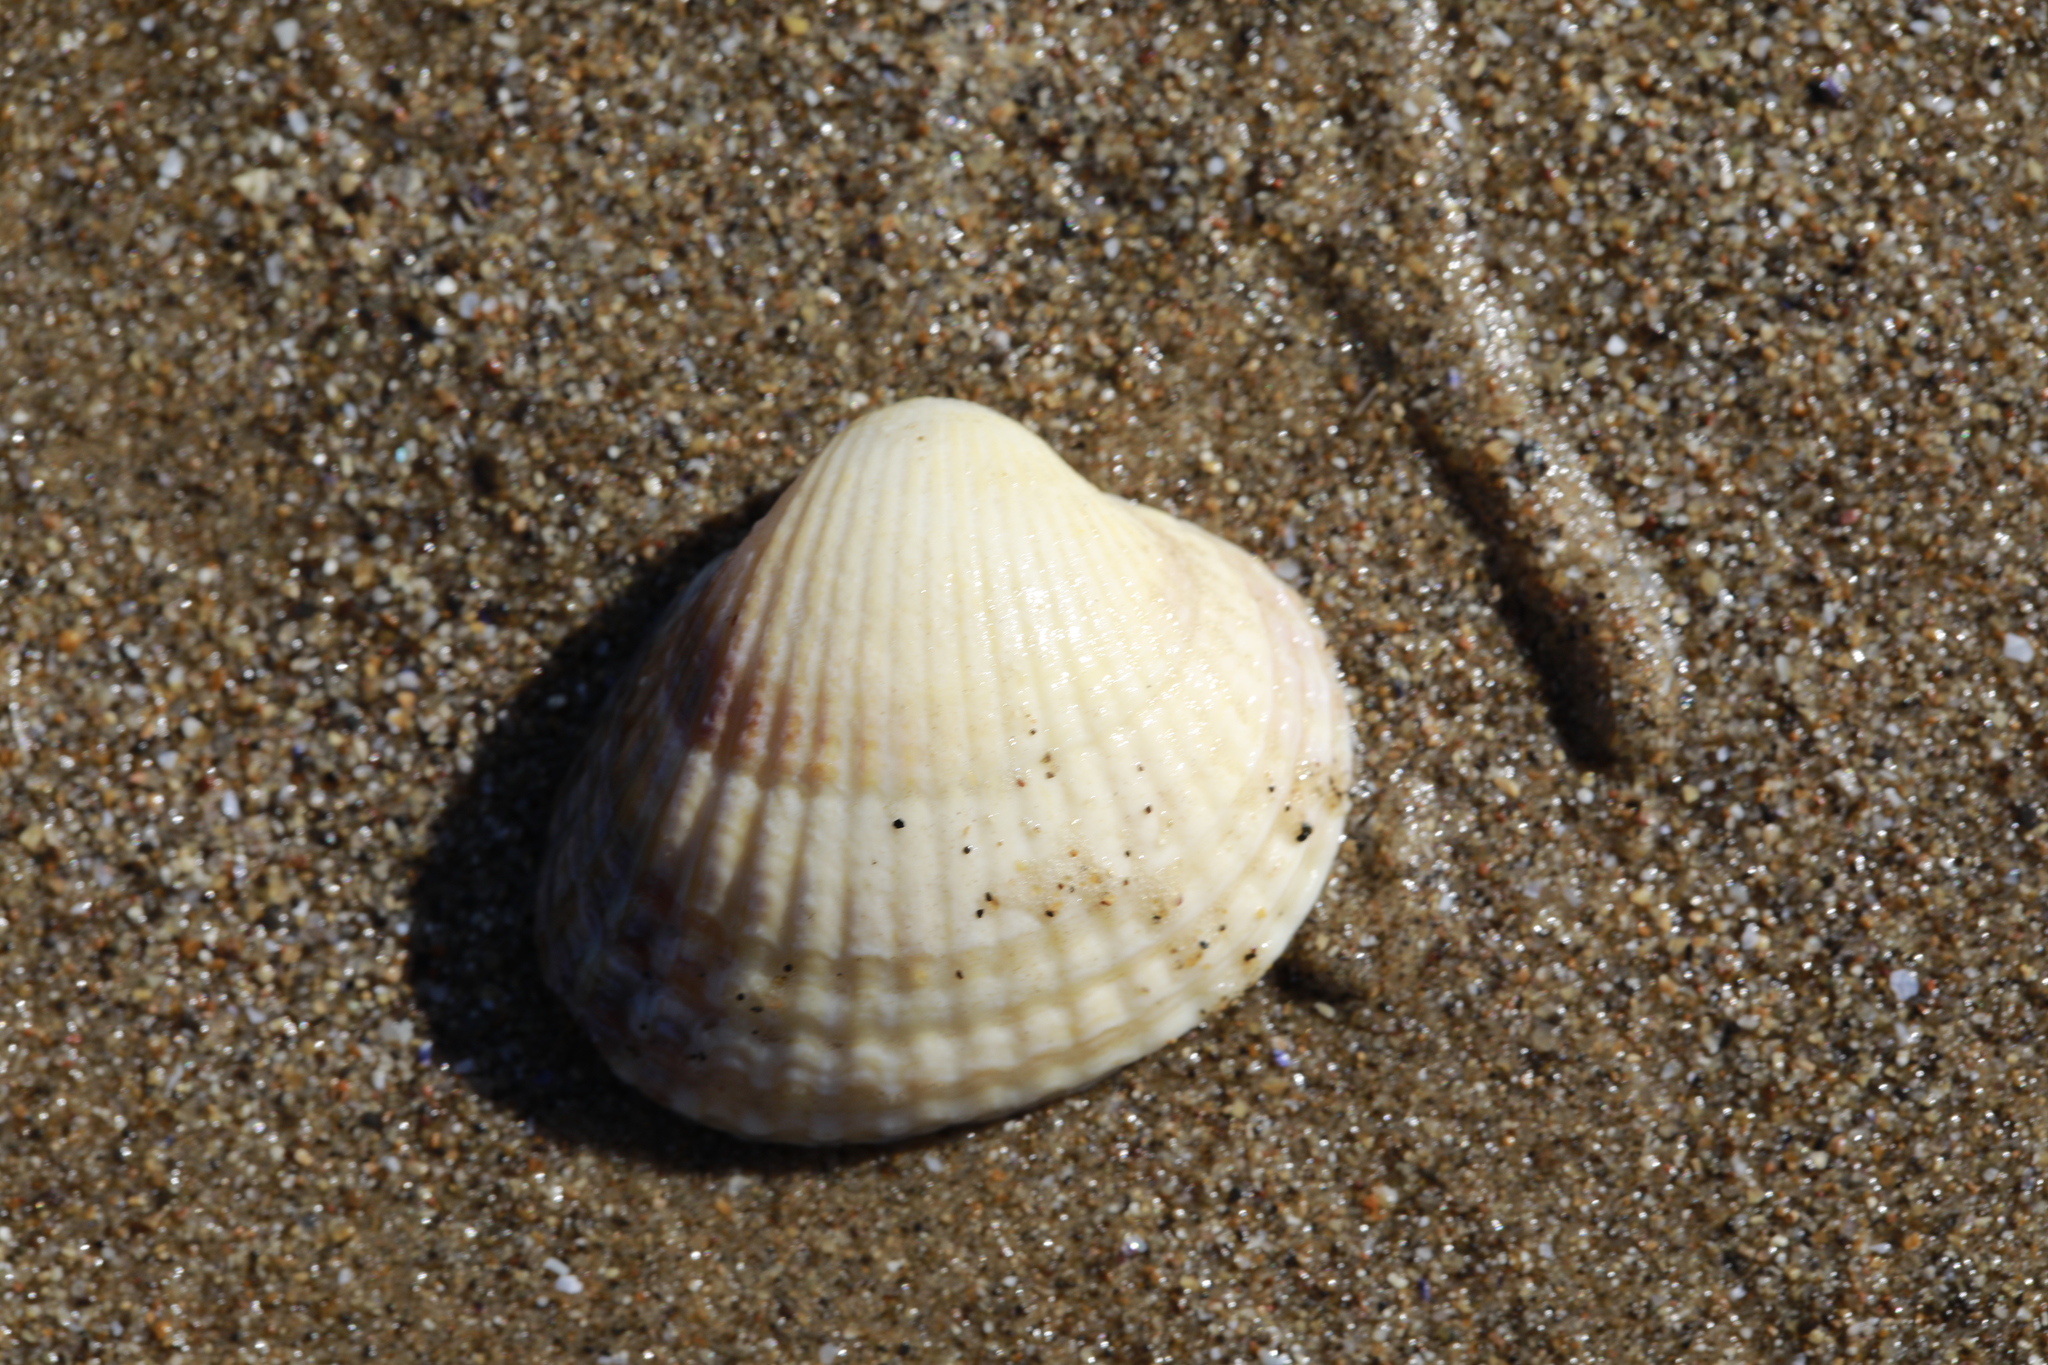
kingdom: Animalia
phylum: Mollusca
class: Bivalvia
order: Cardiida
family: Cardiidae
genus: Cerastoderma
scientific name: Cerastoderma edule
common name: Common cockle
